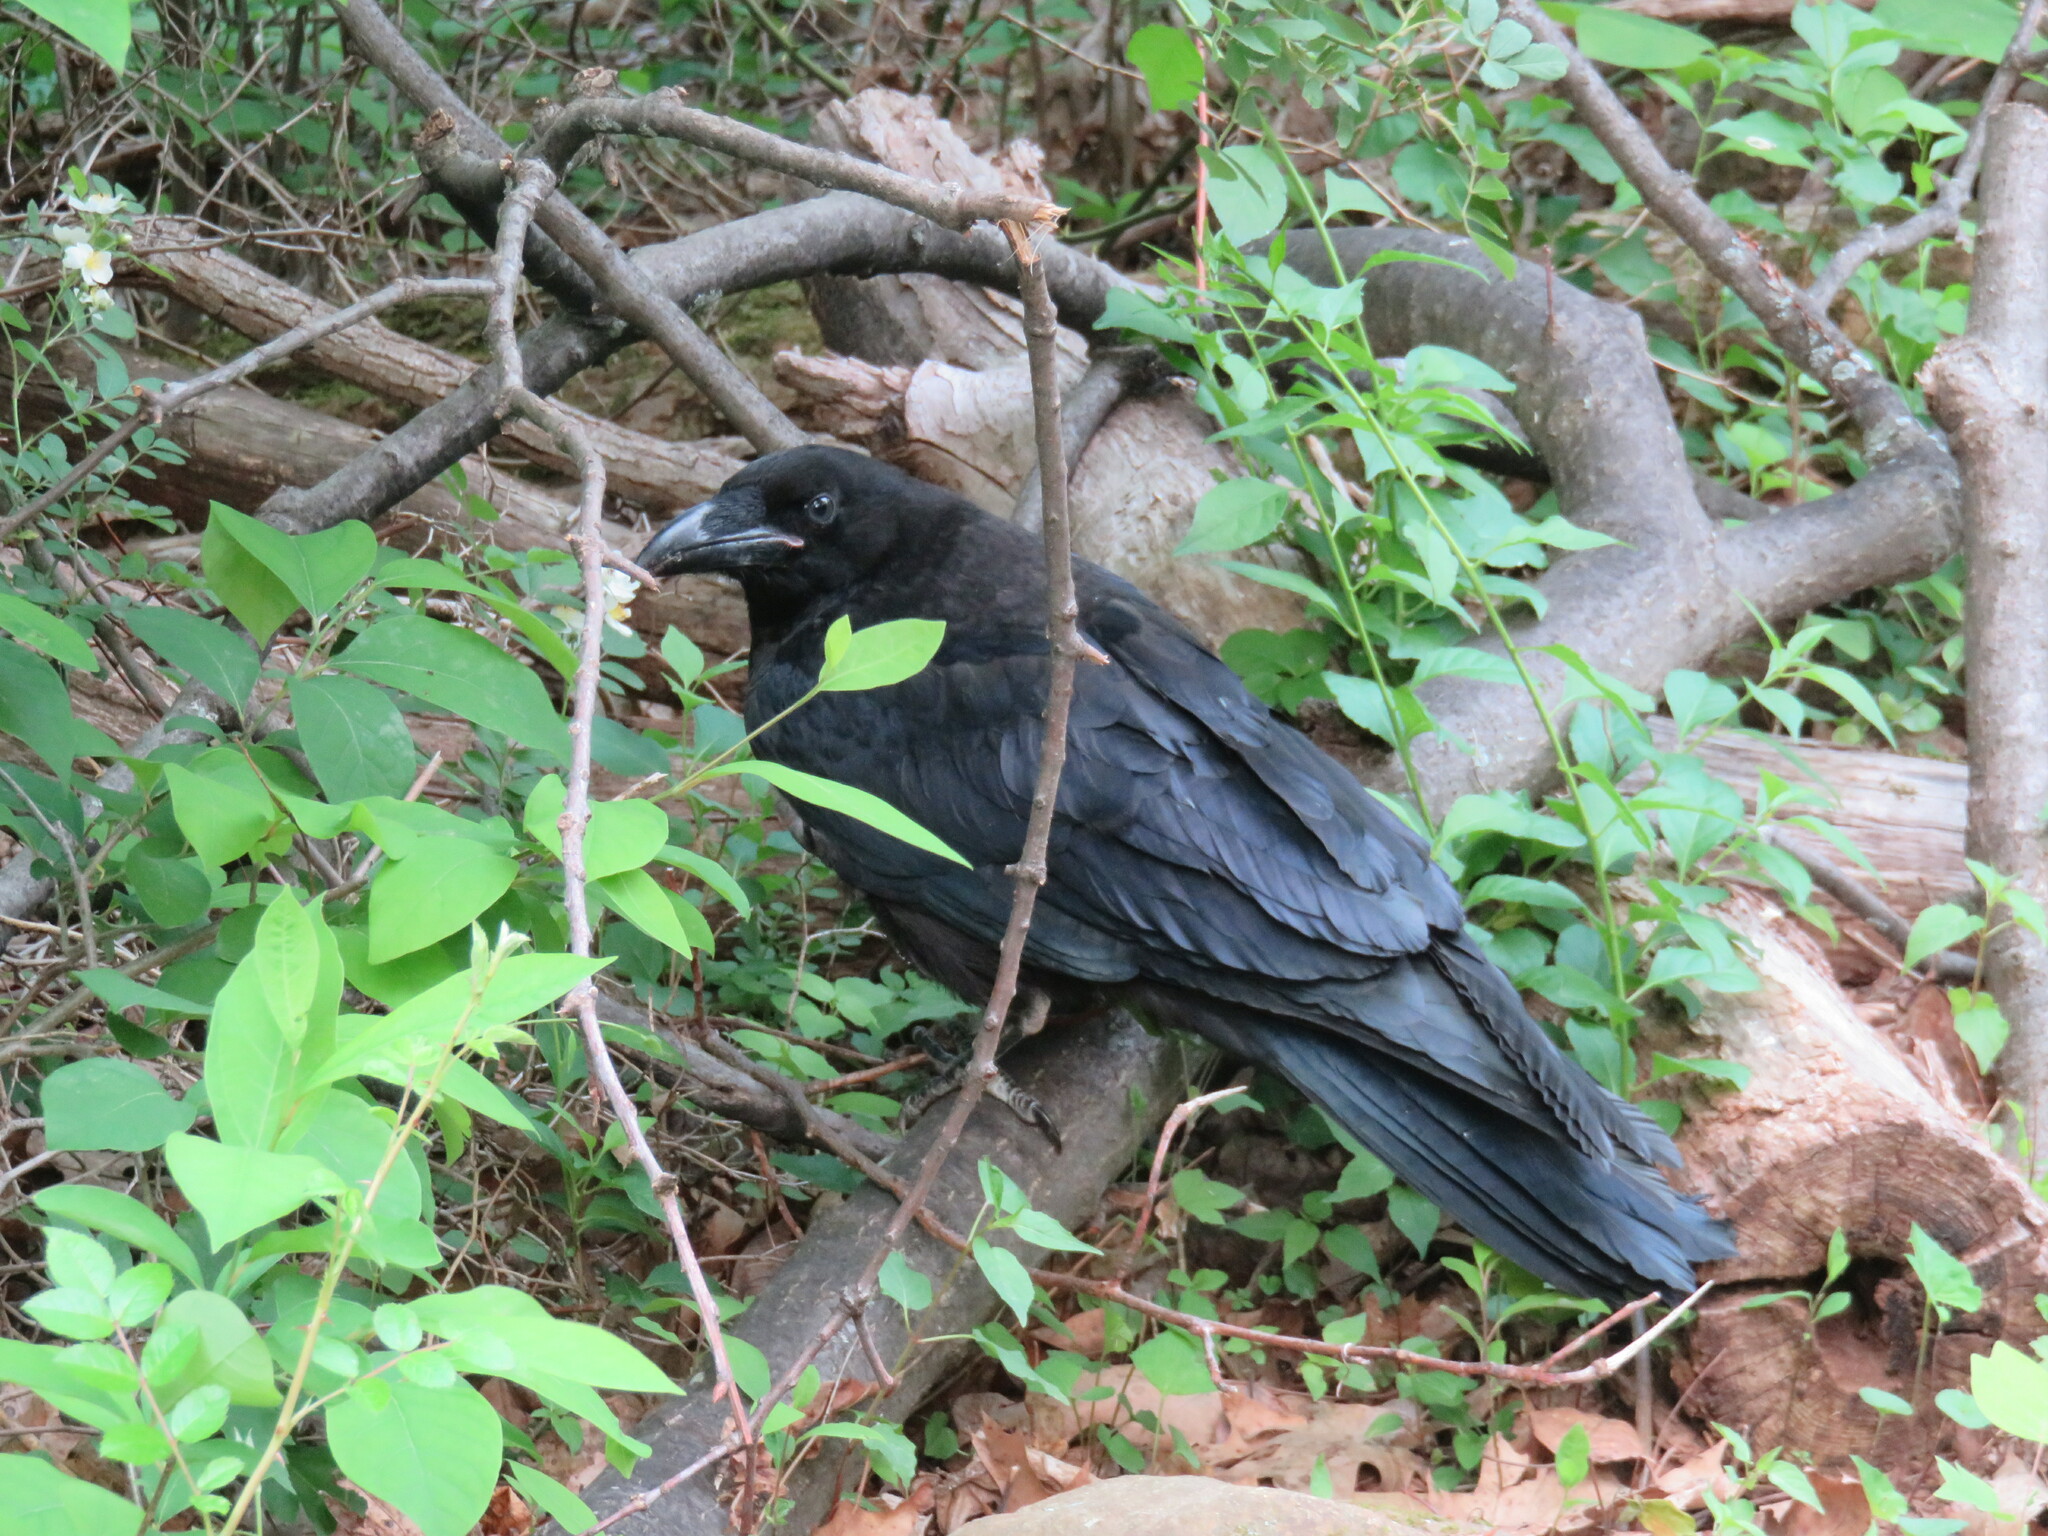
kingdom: Animalia
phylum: Chordata
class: Aves
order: Passeriformes
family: Corvidae
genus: Corvus
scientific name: Corvus corax
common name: Common raven
